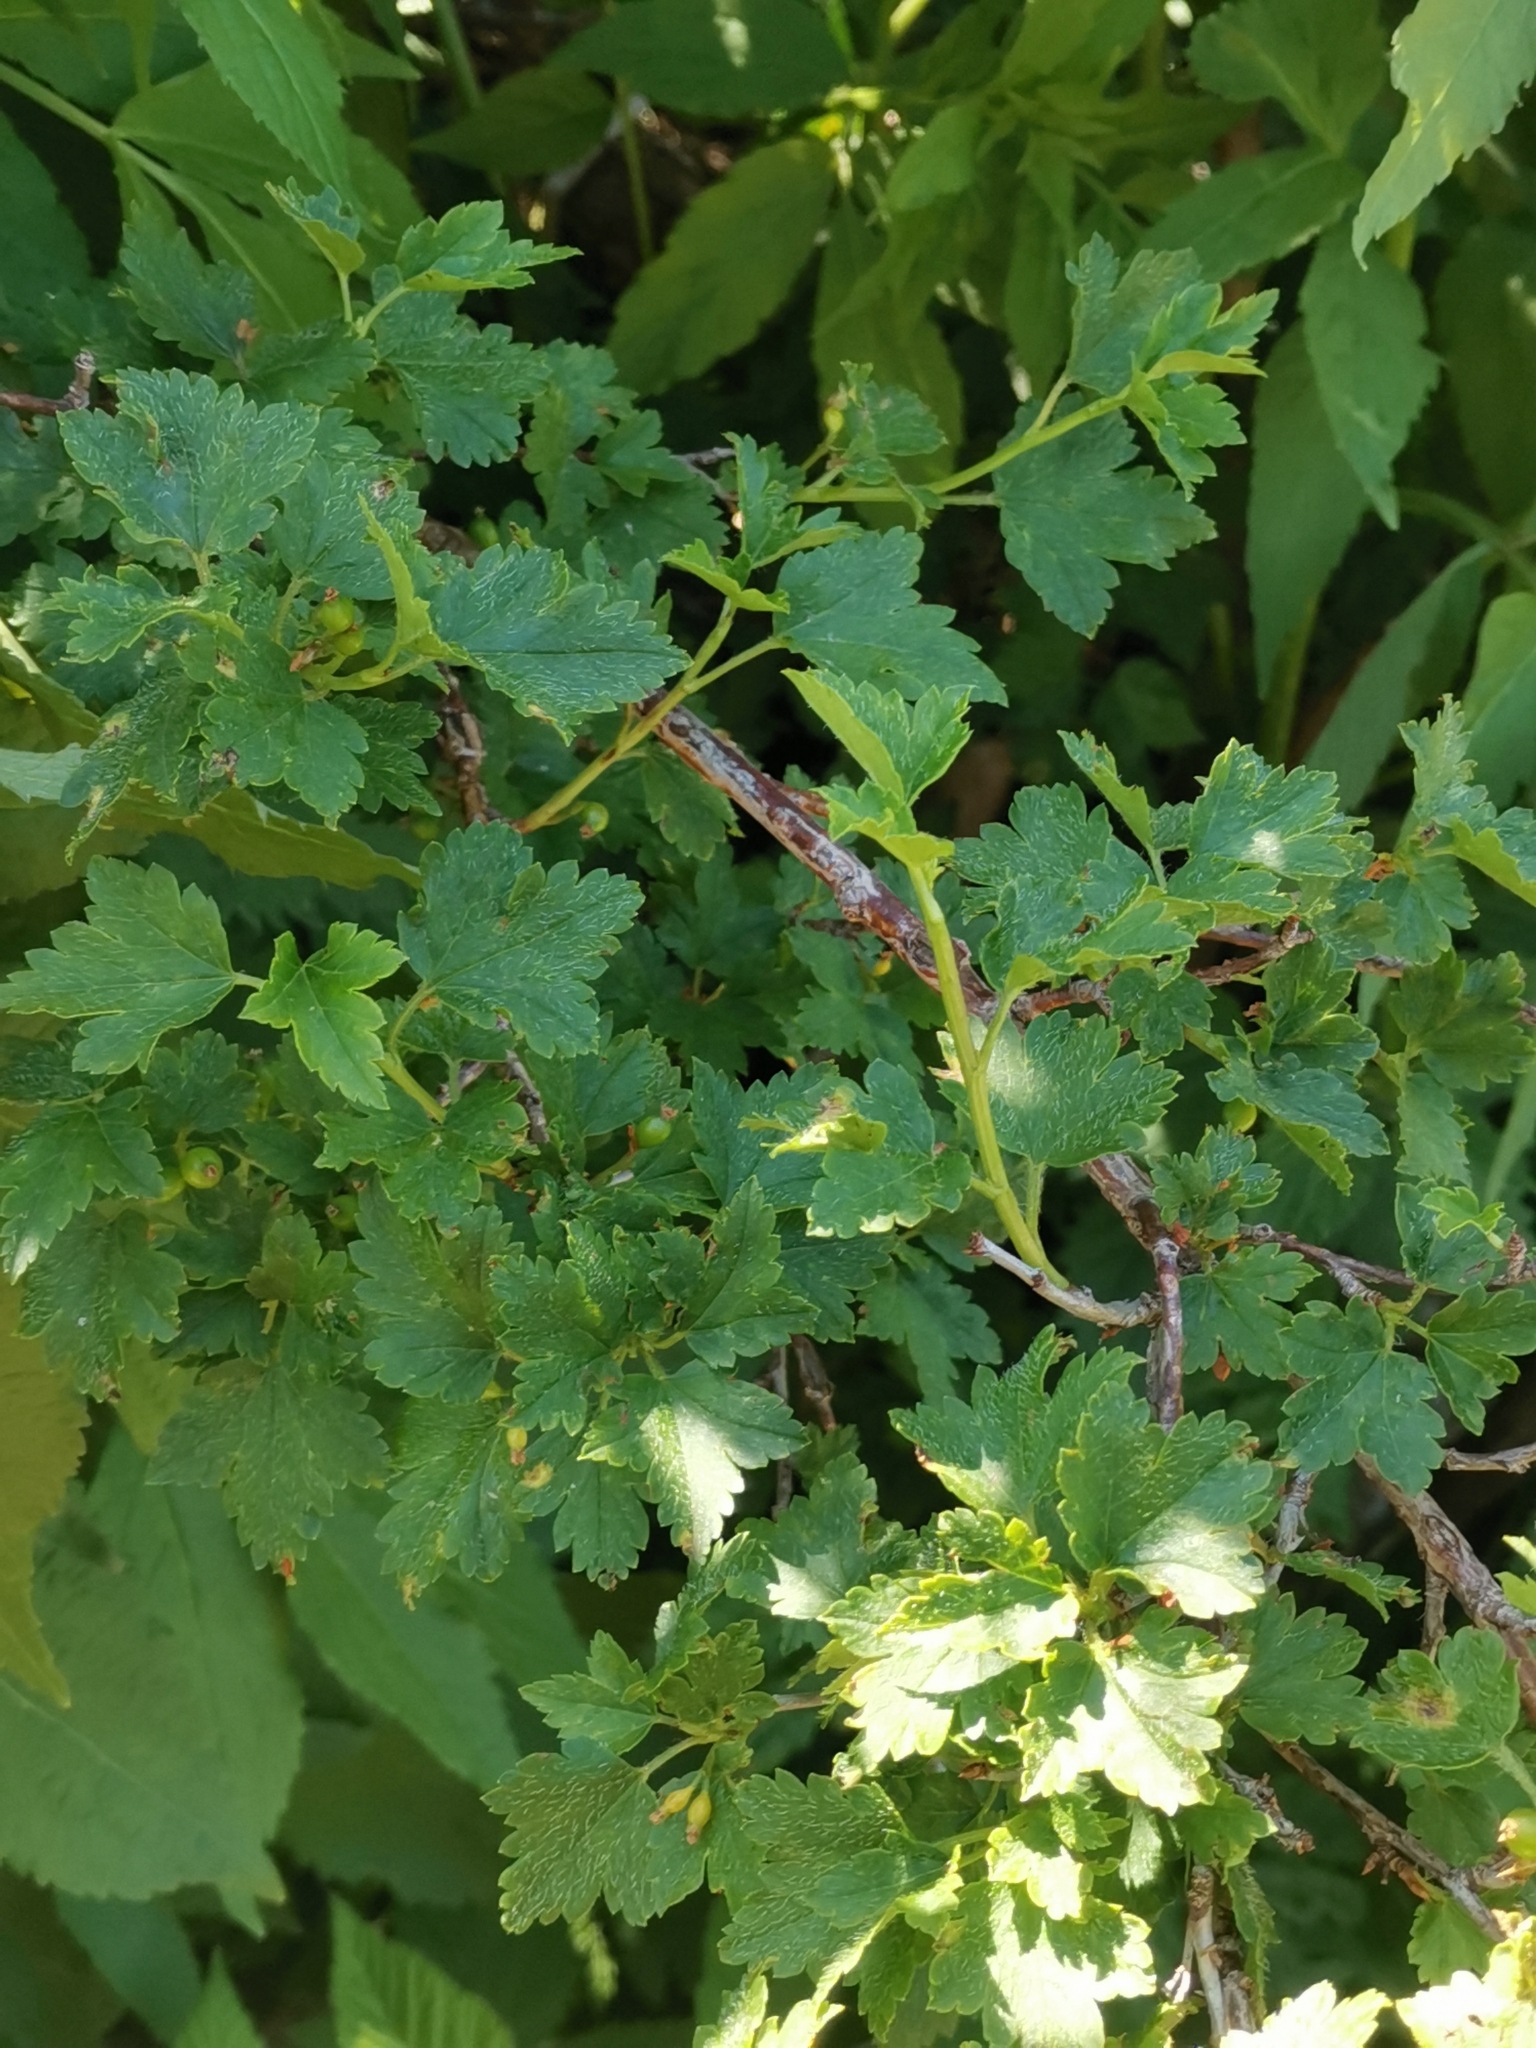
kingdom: Plantae
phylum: Tracheophyta
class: Magnoliopsida
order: Saxifragales
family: Grossulariaceae
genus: Ribes
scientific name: Ribes alpinum
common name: Alpine currant
